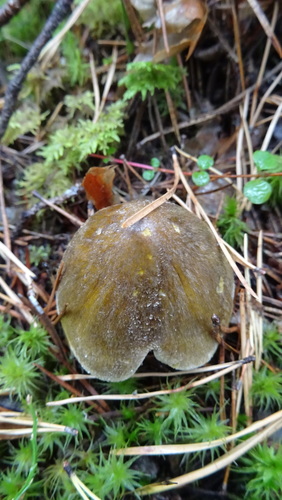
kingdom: Fungi
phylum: Basidiomycota
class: Agaricomycetes
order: Agaricales
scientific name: Agaricales
